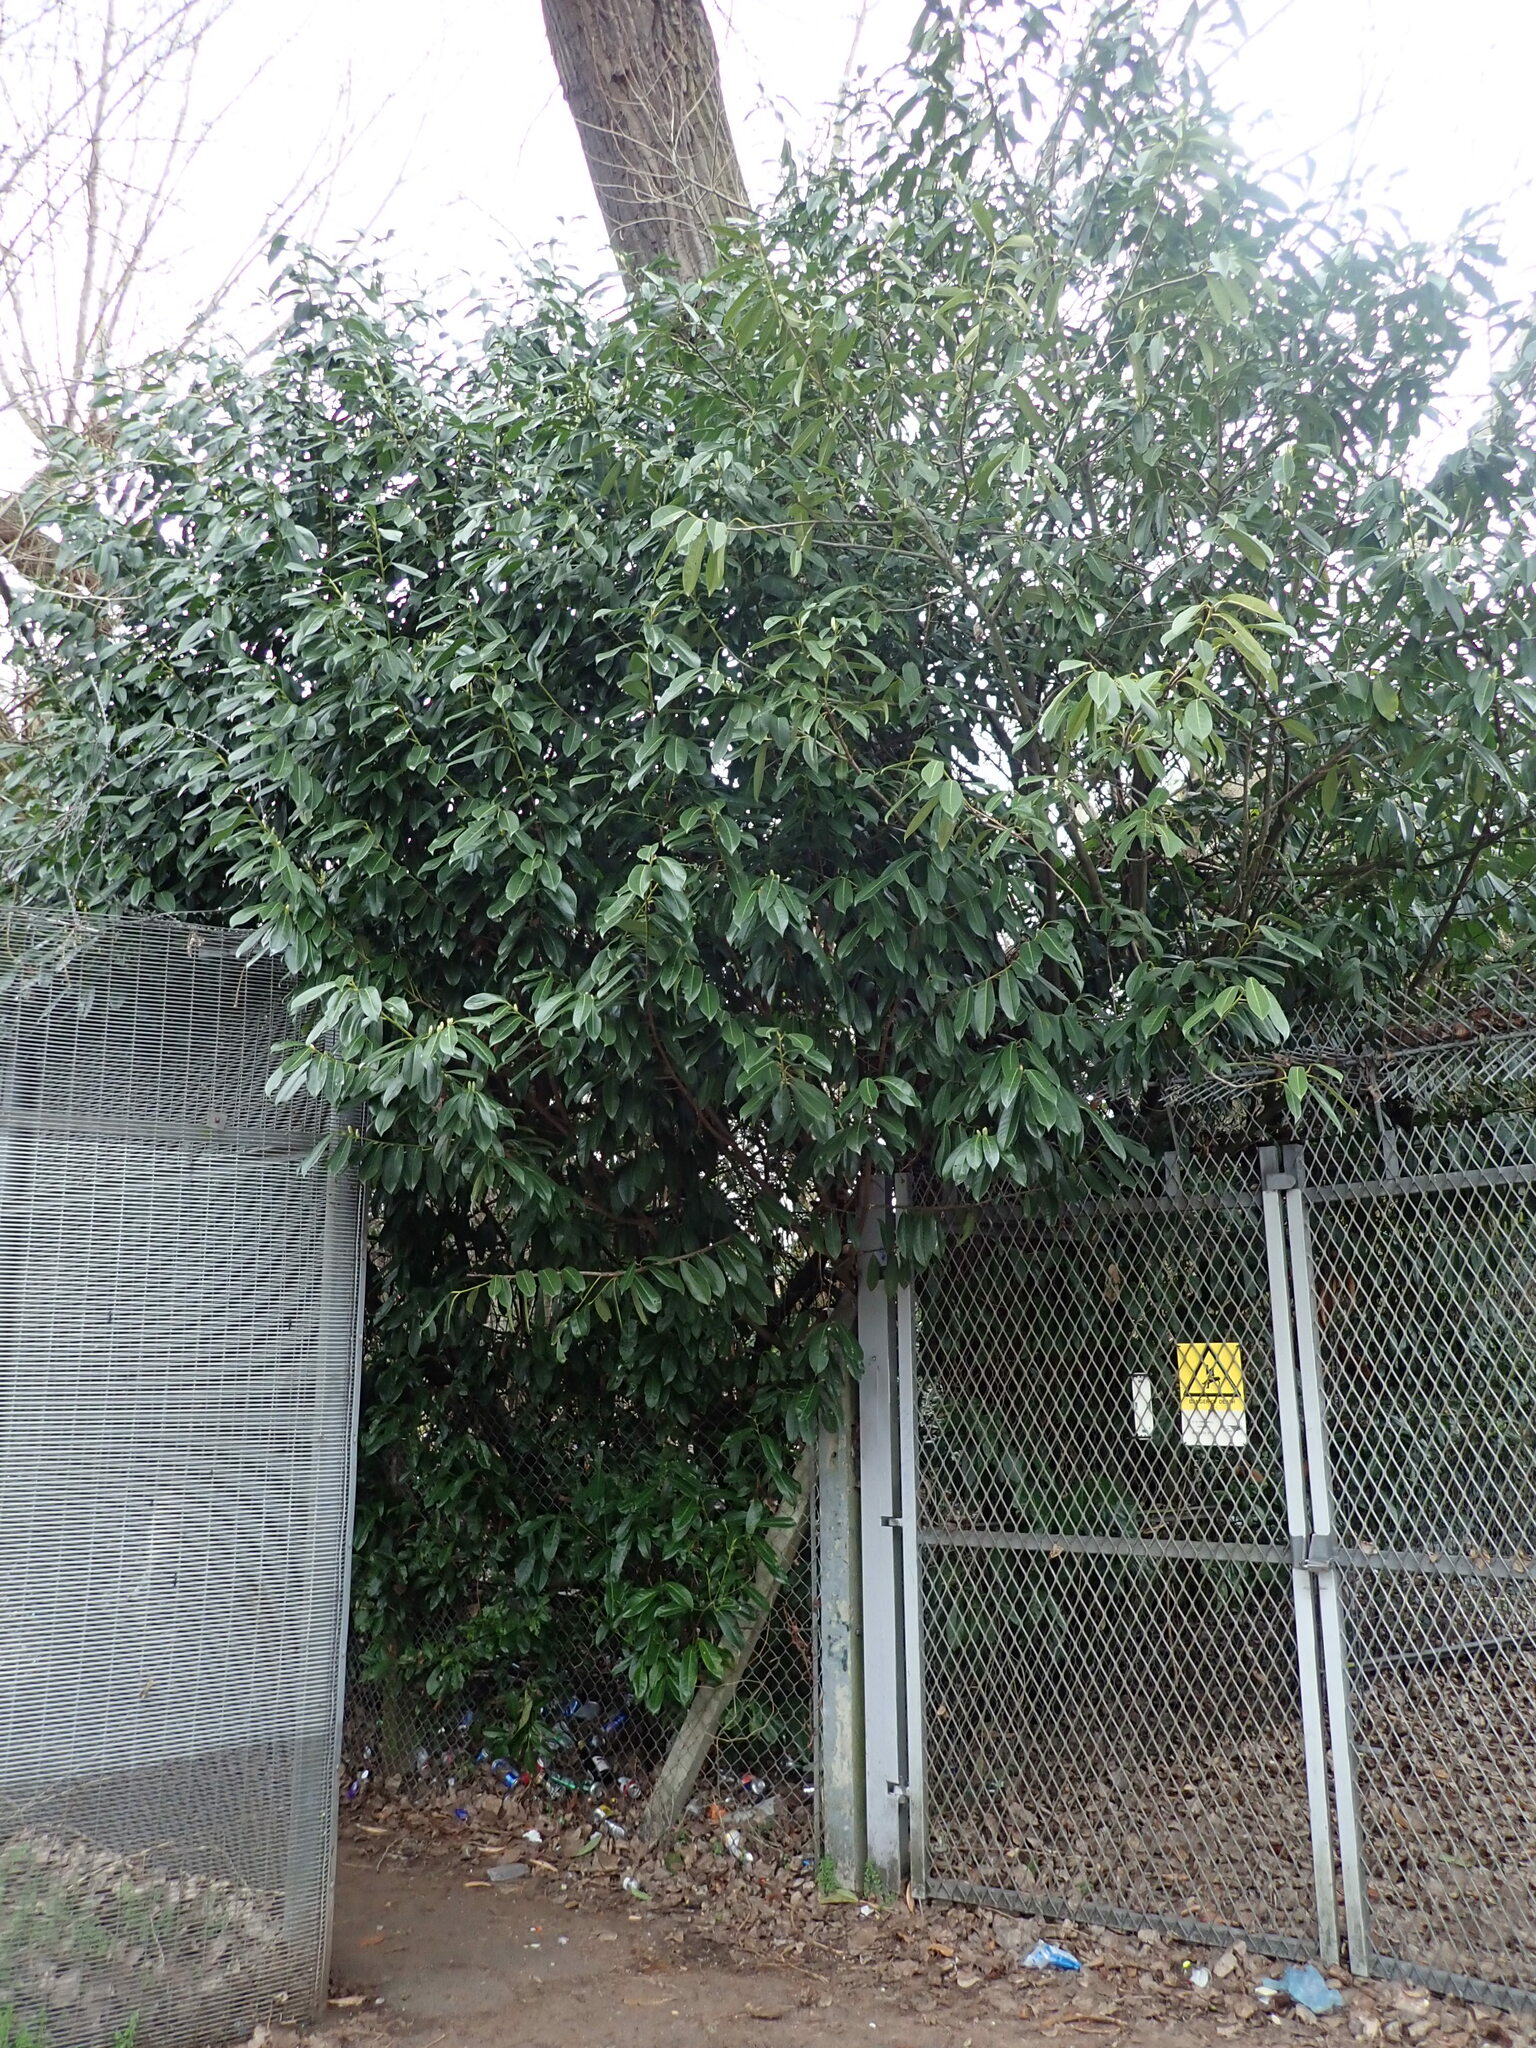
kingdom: Plantae
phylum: Tracheophyta
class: Magnoliopsida
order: Rosales
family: Rosaceae
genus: Prunus
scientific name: Prunus laurocerasus
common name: Cherry laurel
